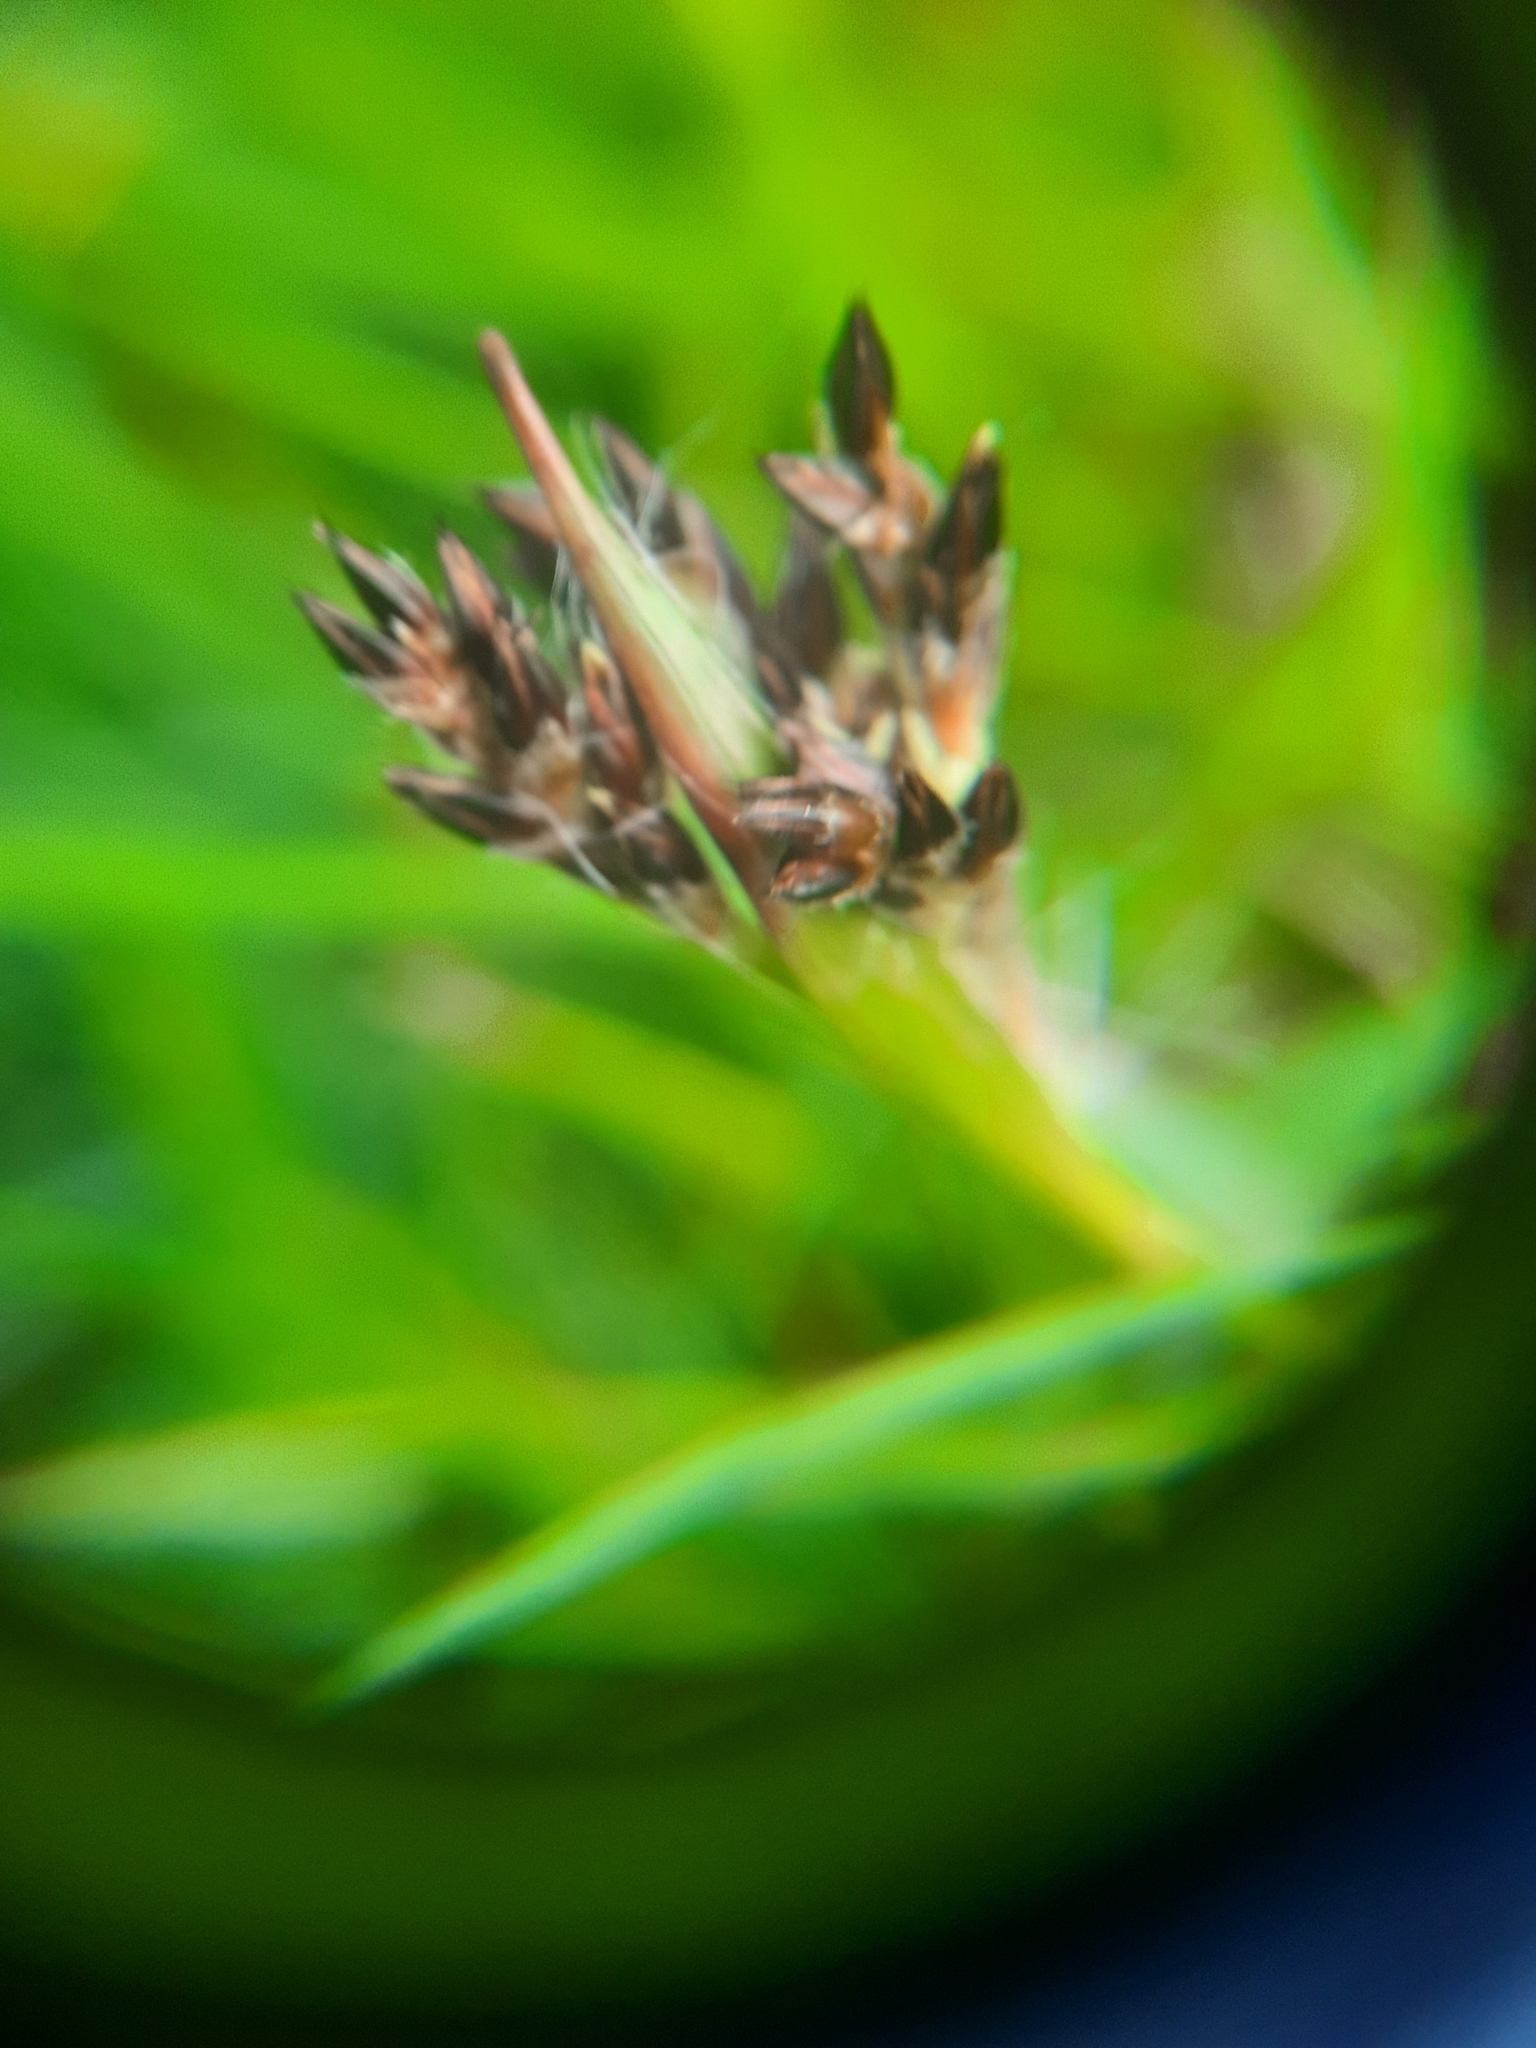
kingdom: Plantae
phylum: Tracheophyta
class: Liliopsida
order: Poales
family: Juncaceae
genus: Luzula
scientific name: Luzula campestris
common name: Field wood-rush
